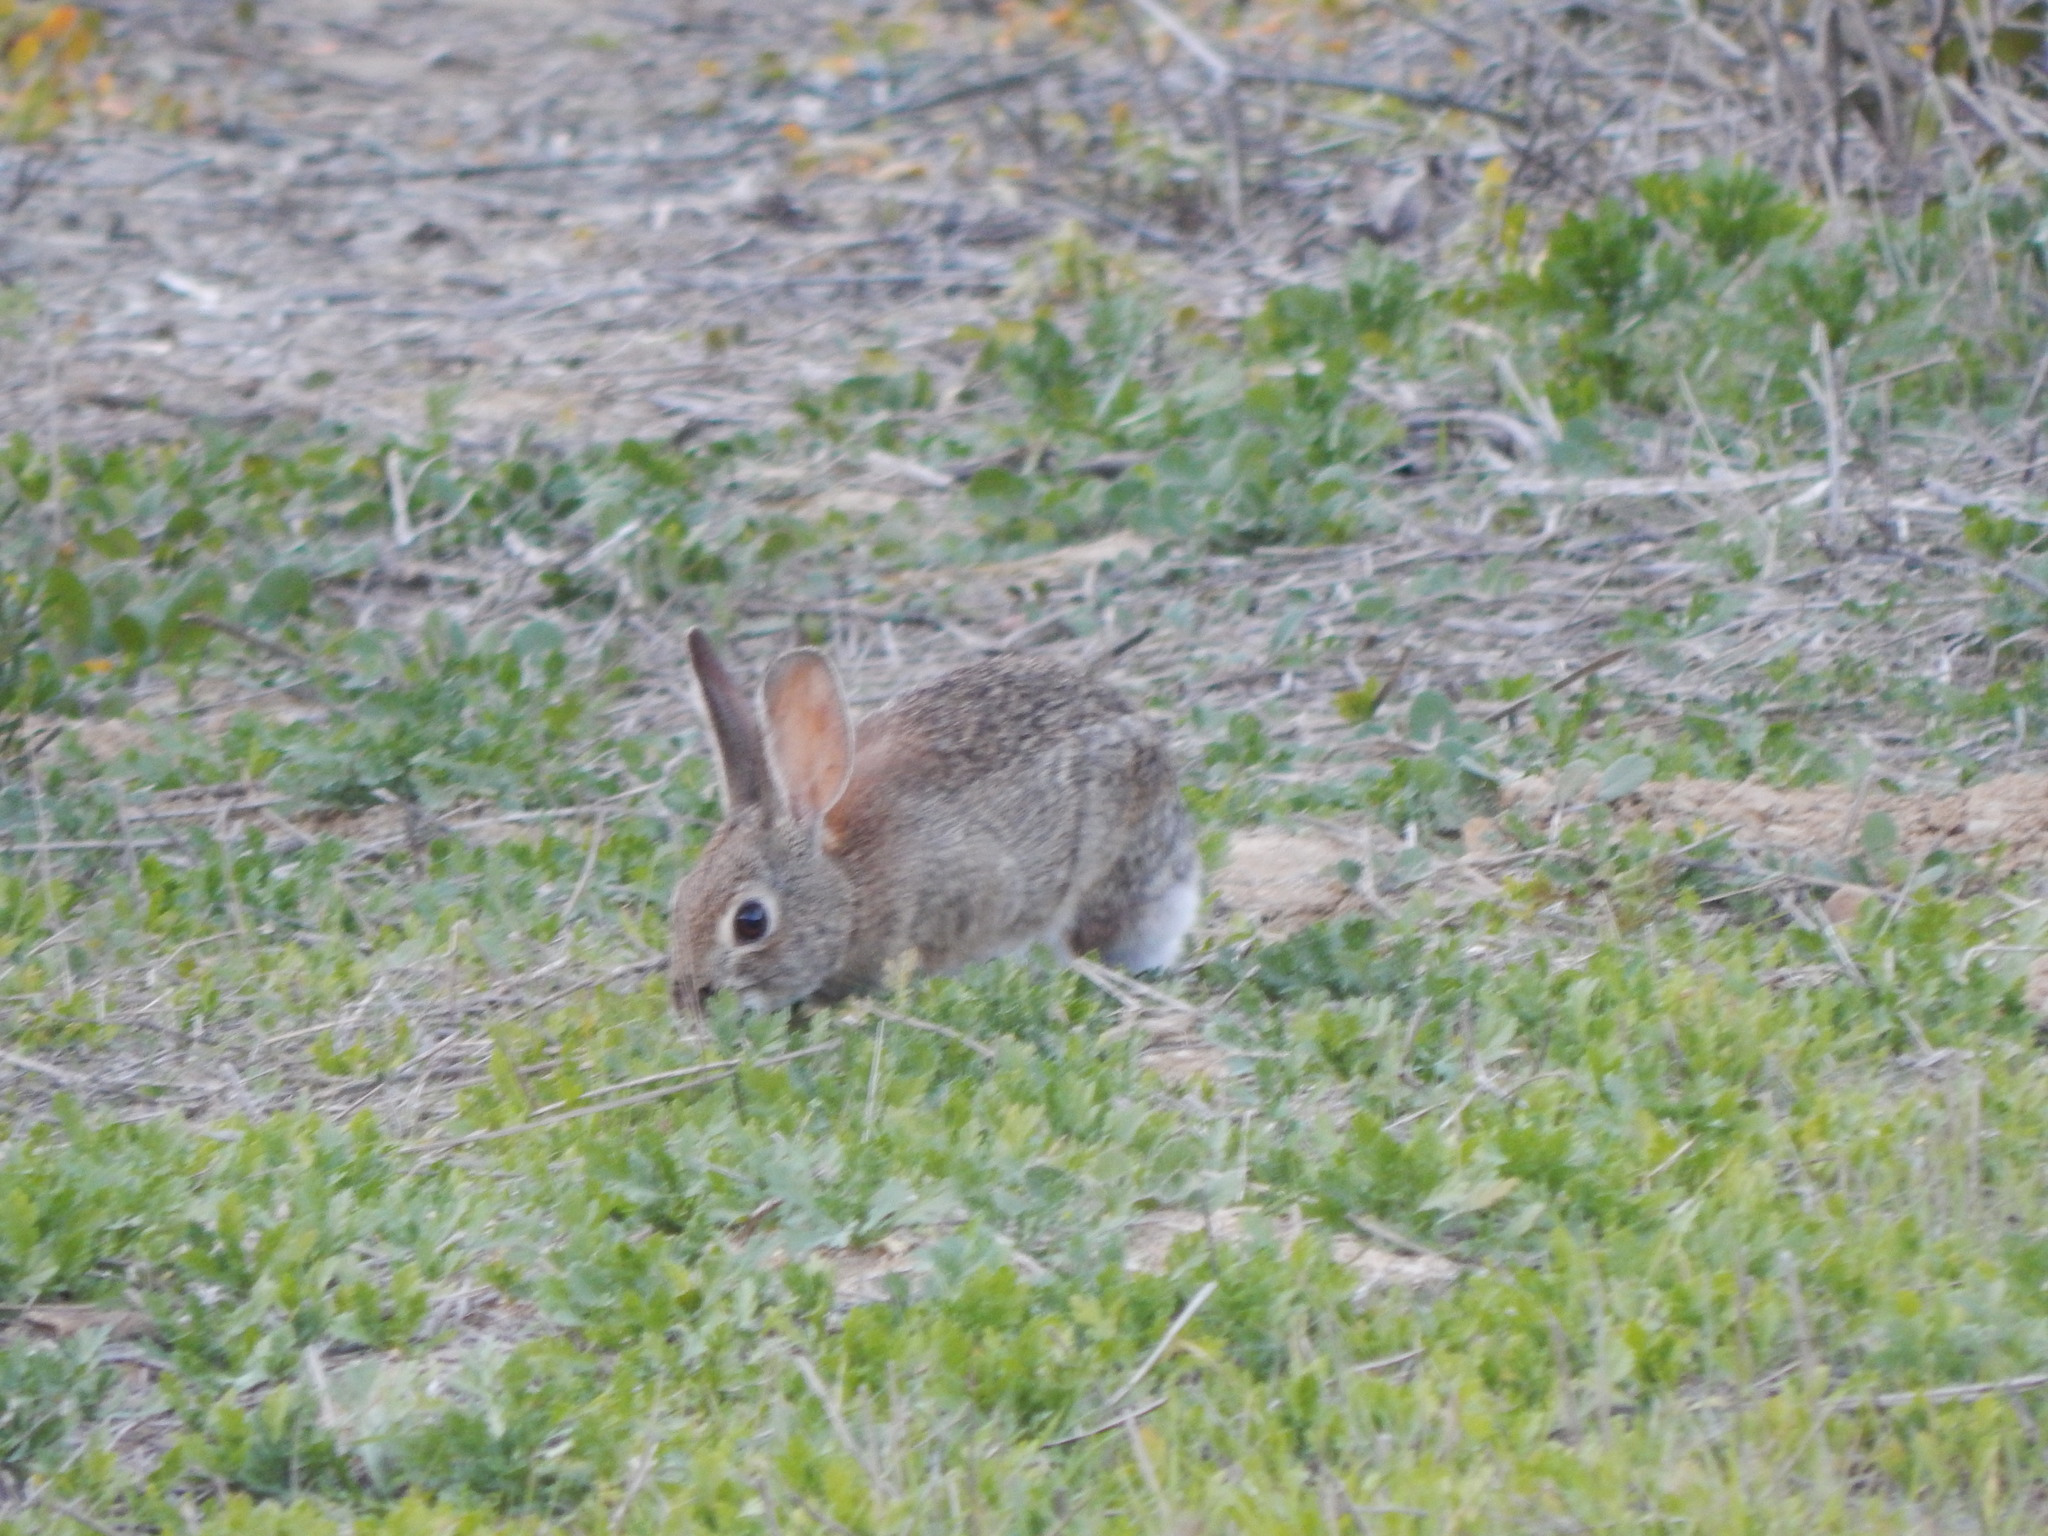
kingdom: Animalia
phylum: Chordata
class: Mammalia
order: Lagomorpha
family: Leporidae
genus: Sylvilagus
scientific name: Sylvilagus audubonii
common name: Desert cottontail
